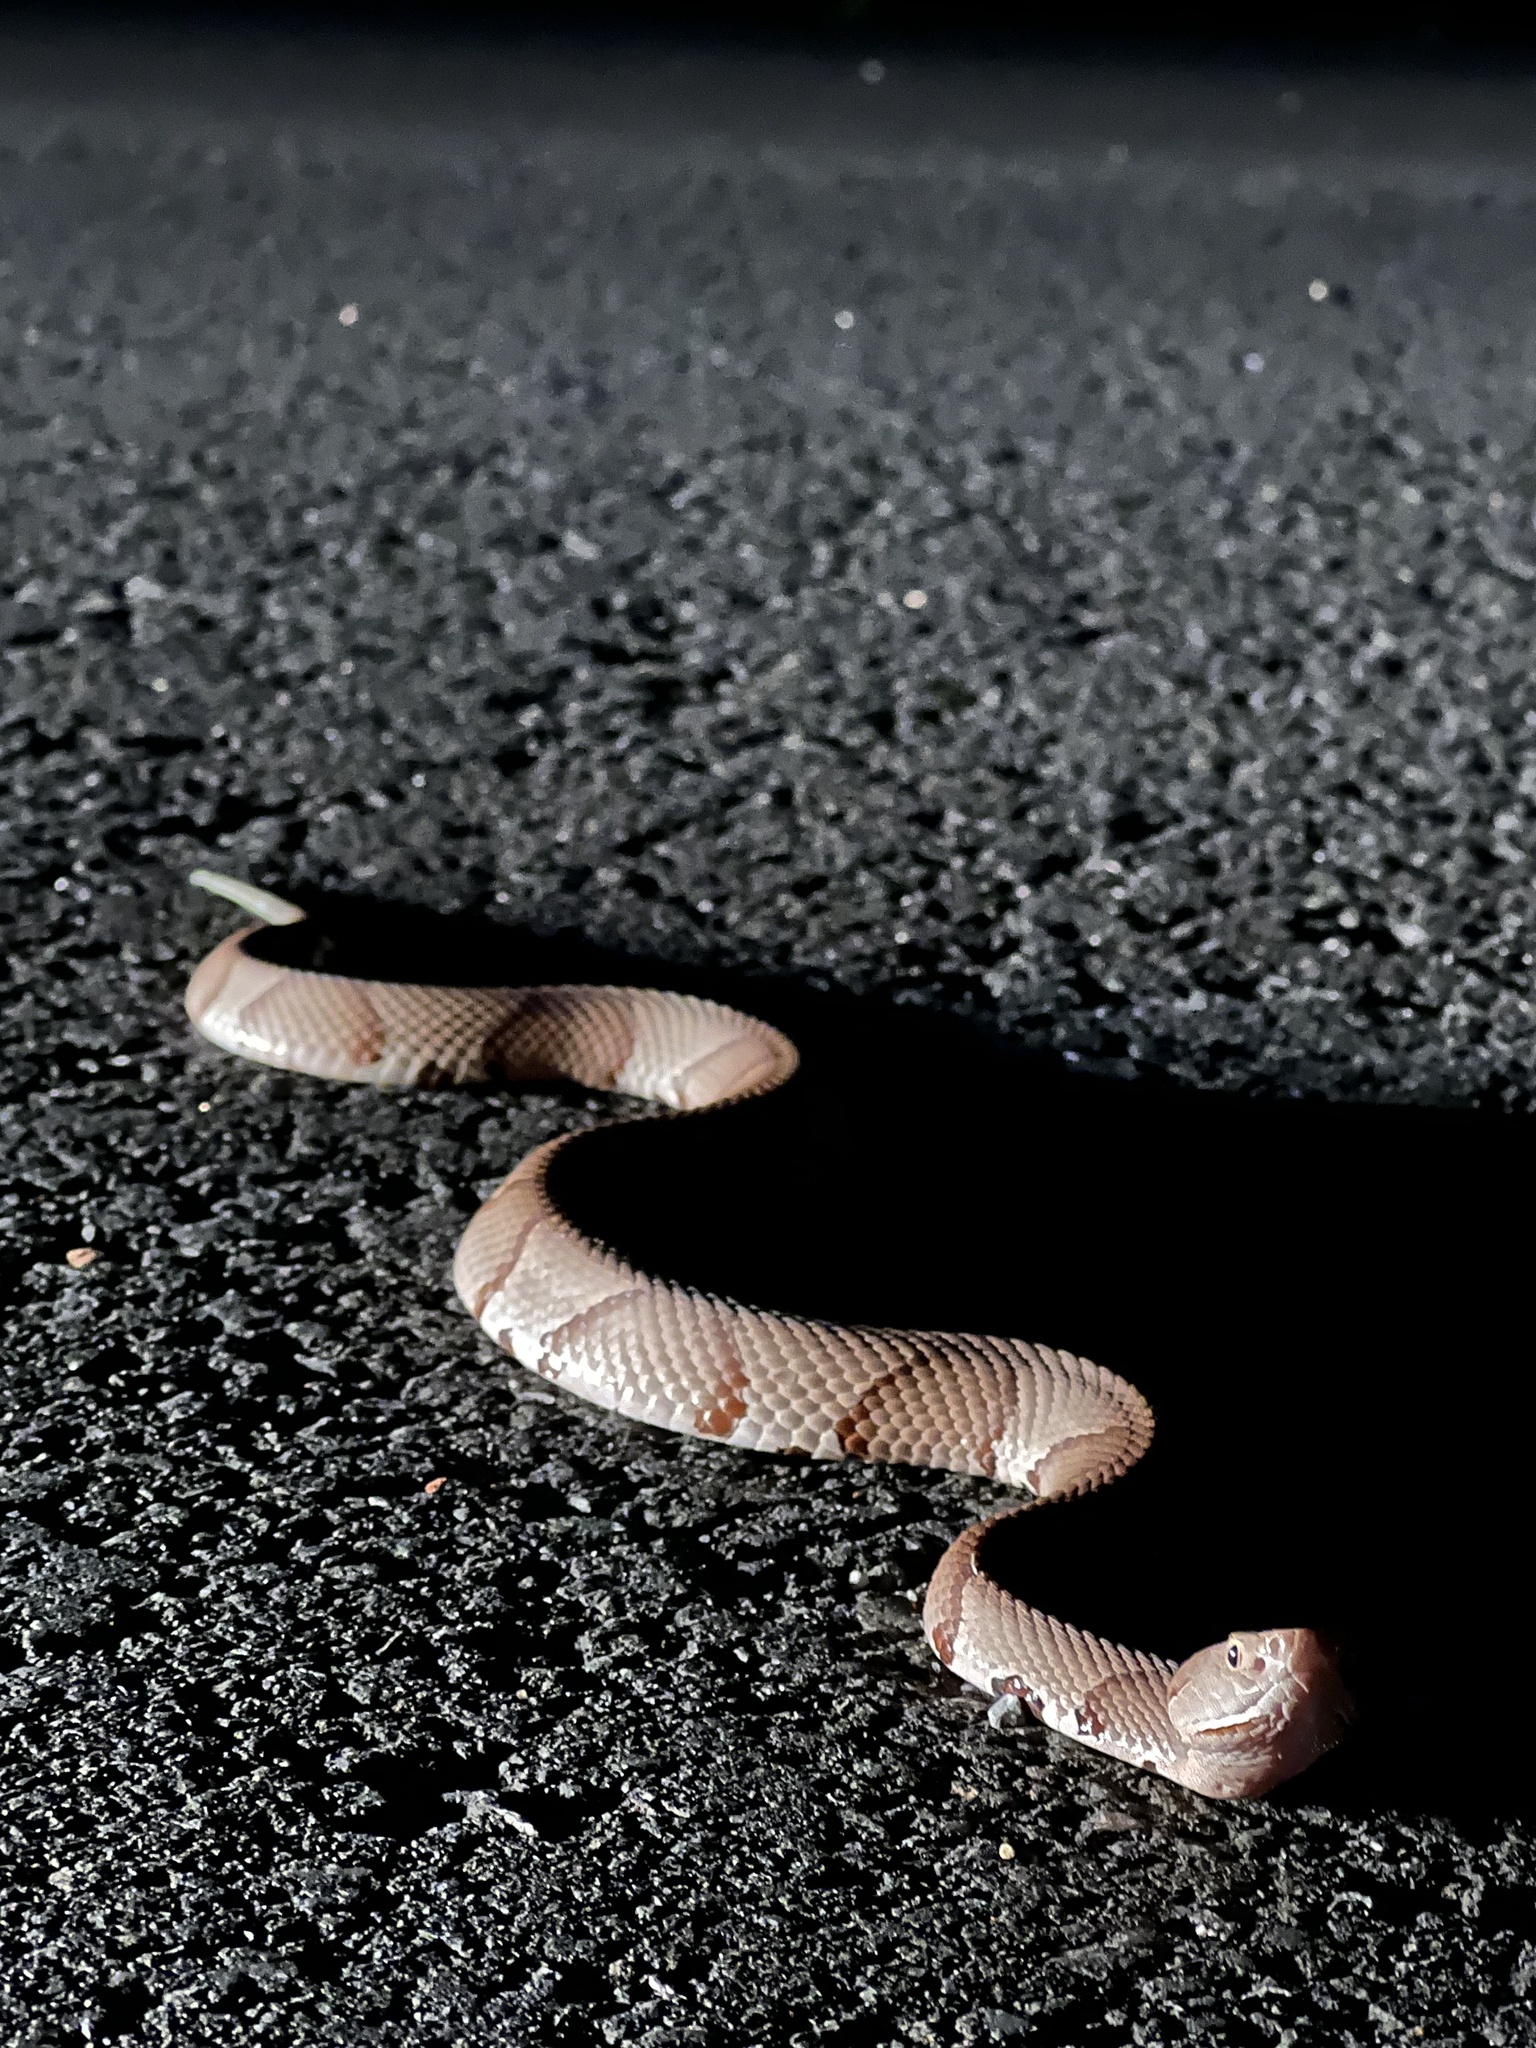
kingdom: Animalia
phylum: Chordata
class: Squamata
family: Viperidae
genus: Agkistrodon
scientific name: Agkistrodon laticinctus
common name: Broad-banded copperhead
